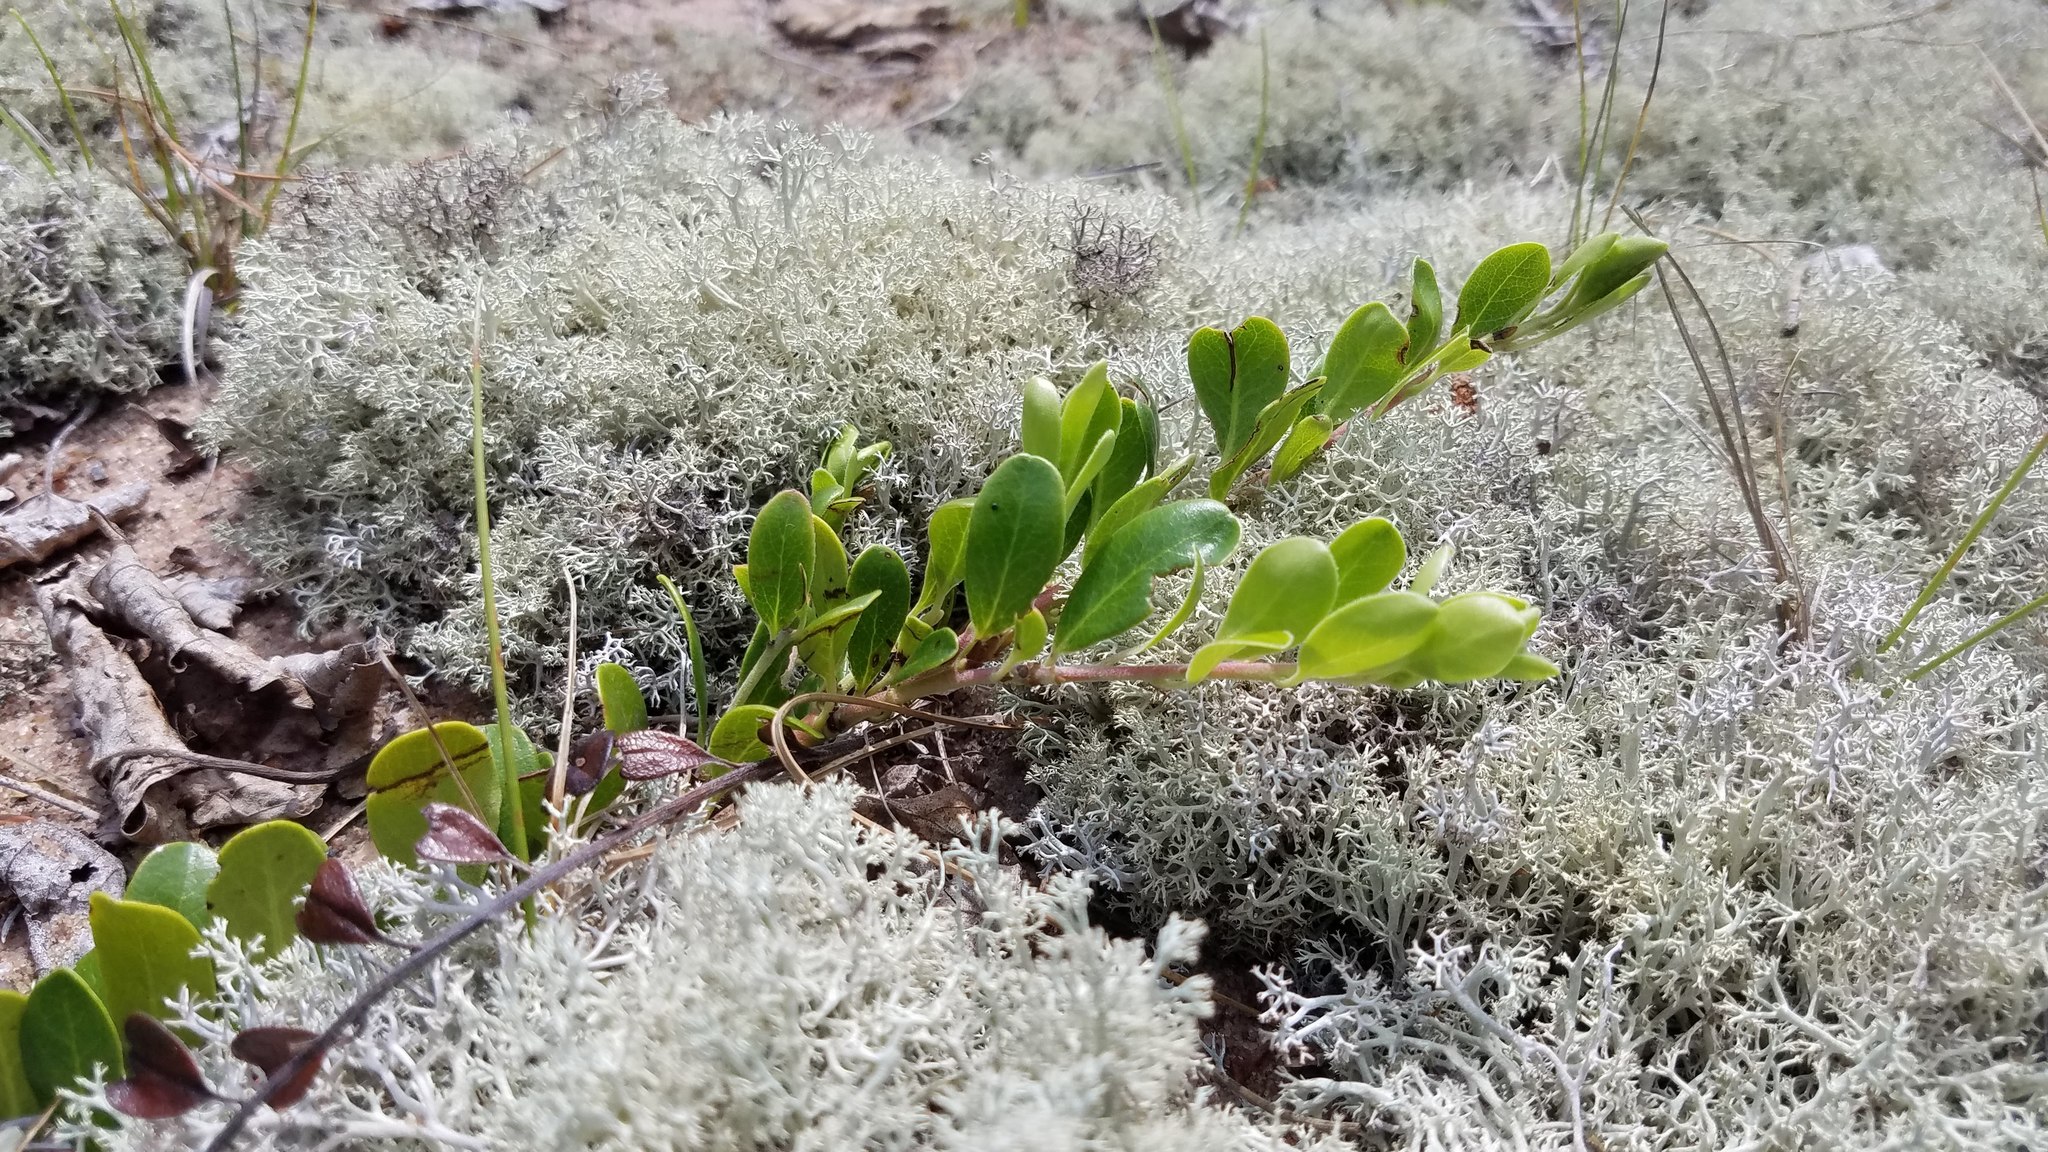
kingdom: Plantae
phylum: Tracheophyta
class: Magnoliopsida
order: Ericales
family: Ericaceae
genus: Arctostaphylos
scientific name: Arctostaphylos uva-ursi
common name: Bearberry
